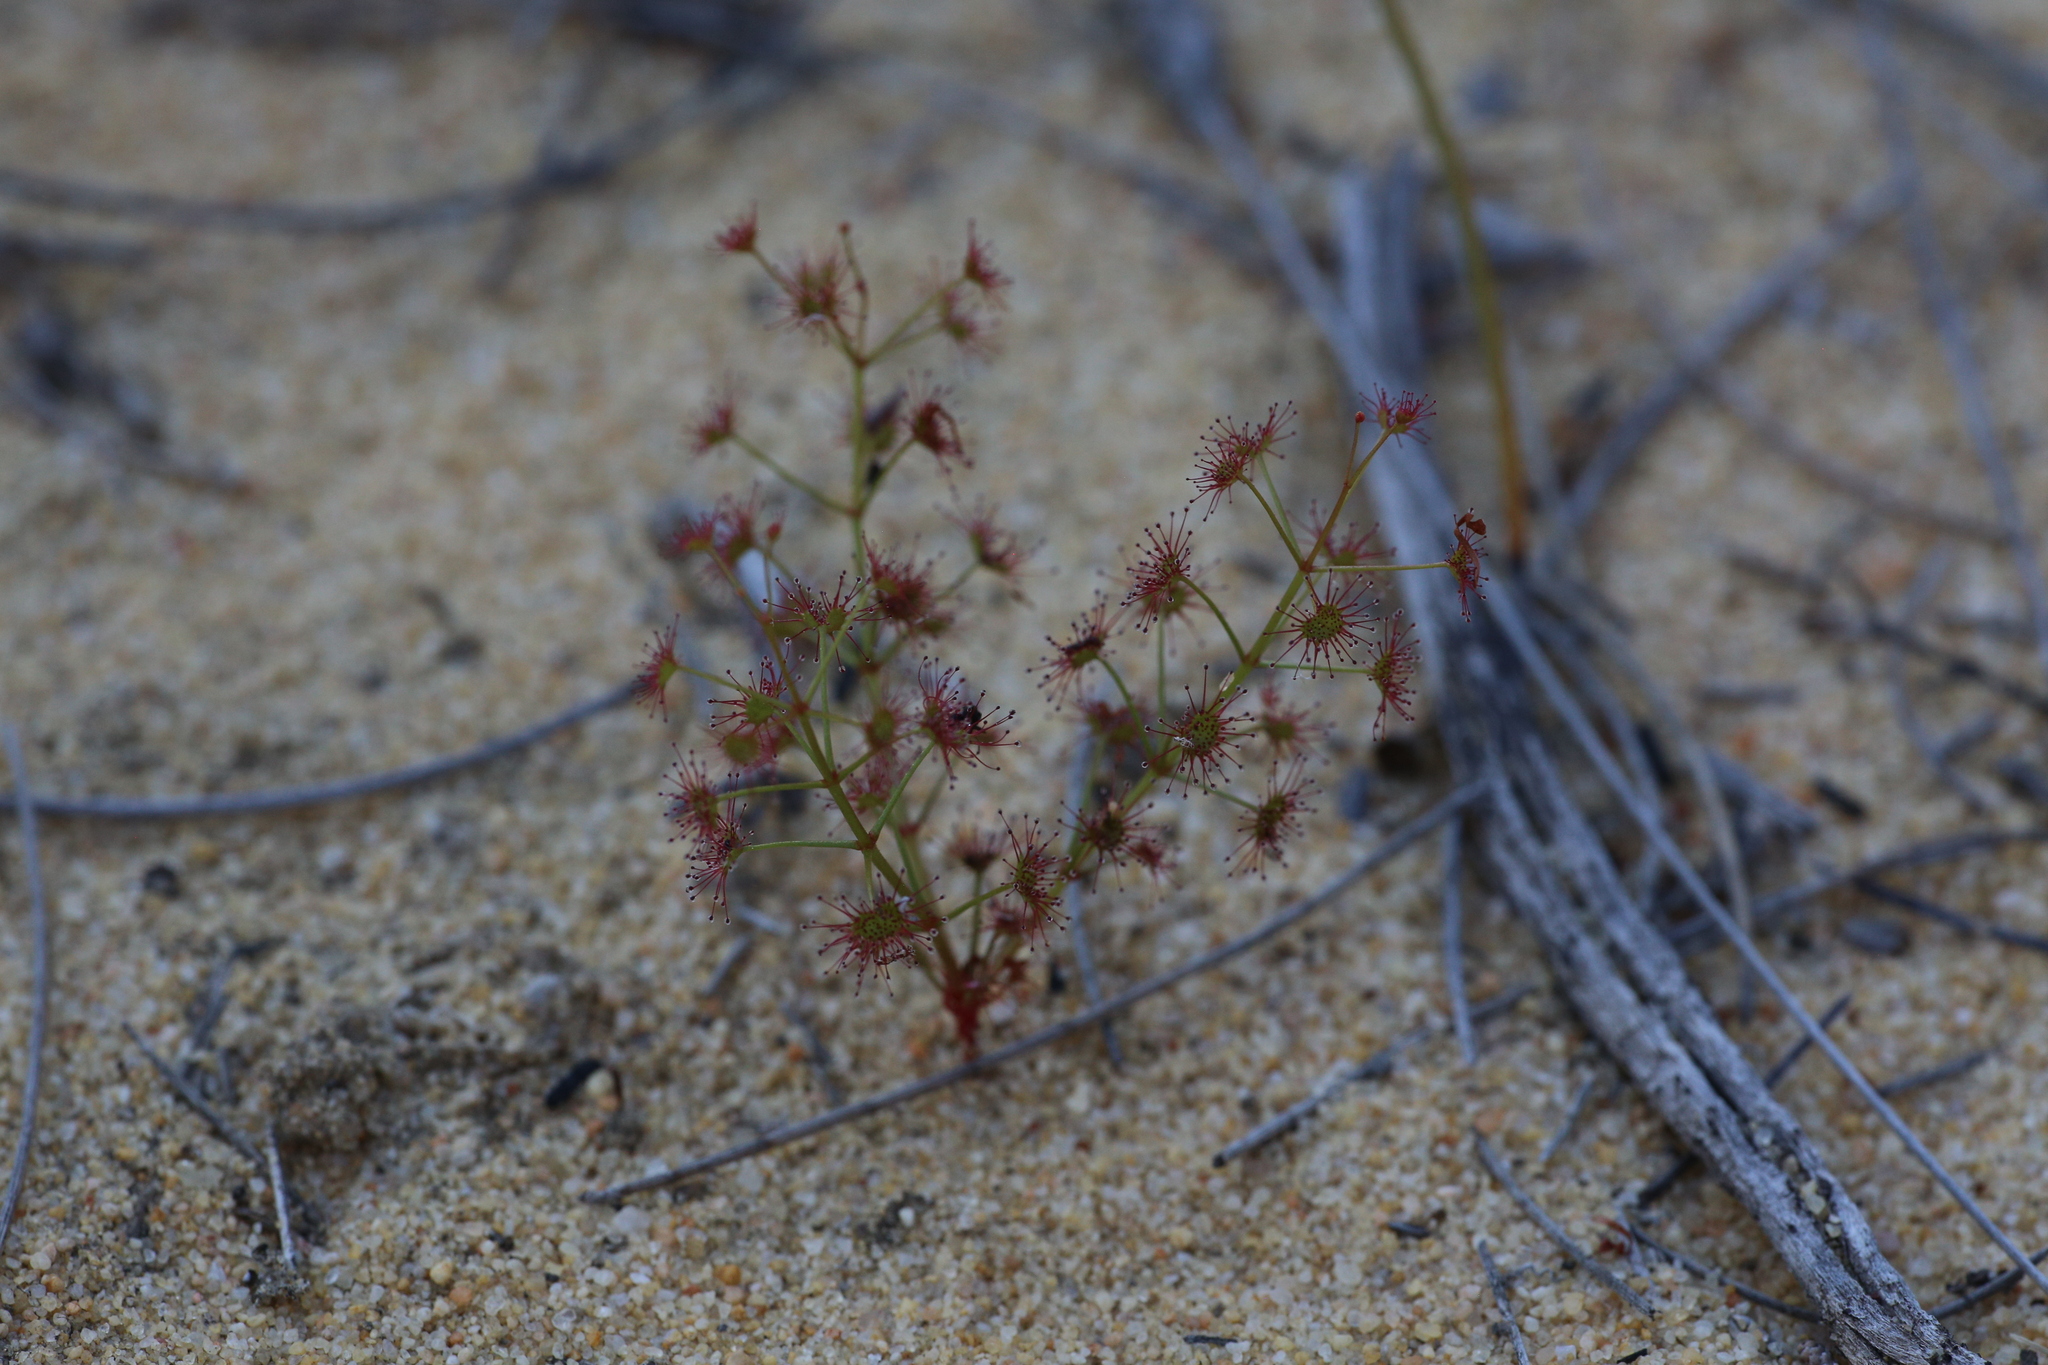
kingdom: Plantae
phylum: Tracheophyta
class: Magnoliopsida
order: Caryophyllales
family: Droseraceae
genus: Drosera
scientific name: Drosera stolonifera
